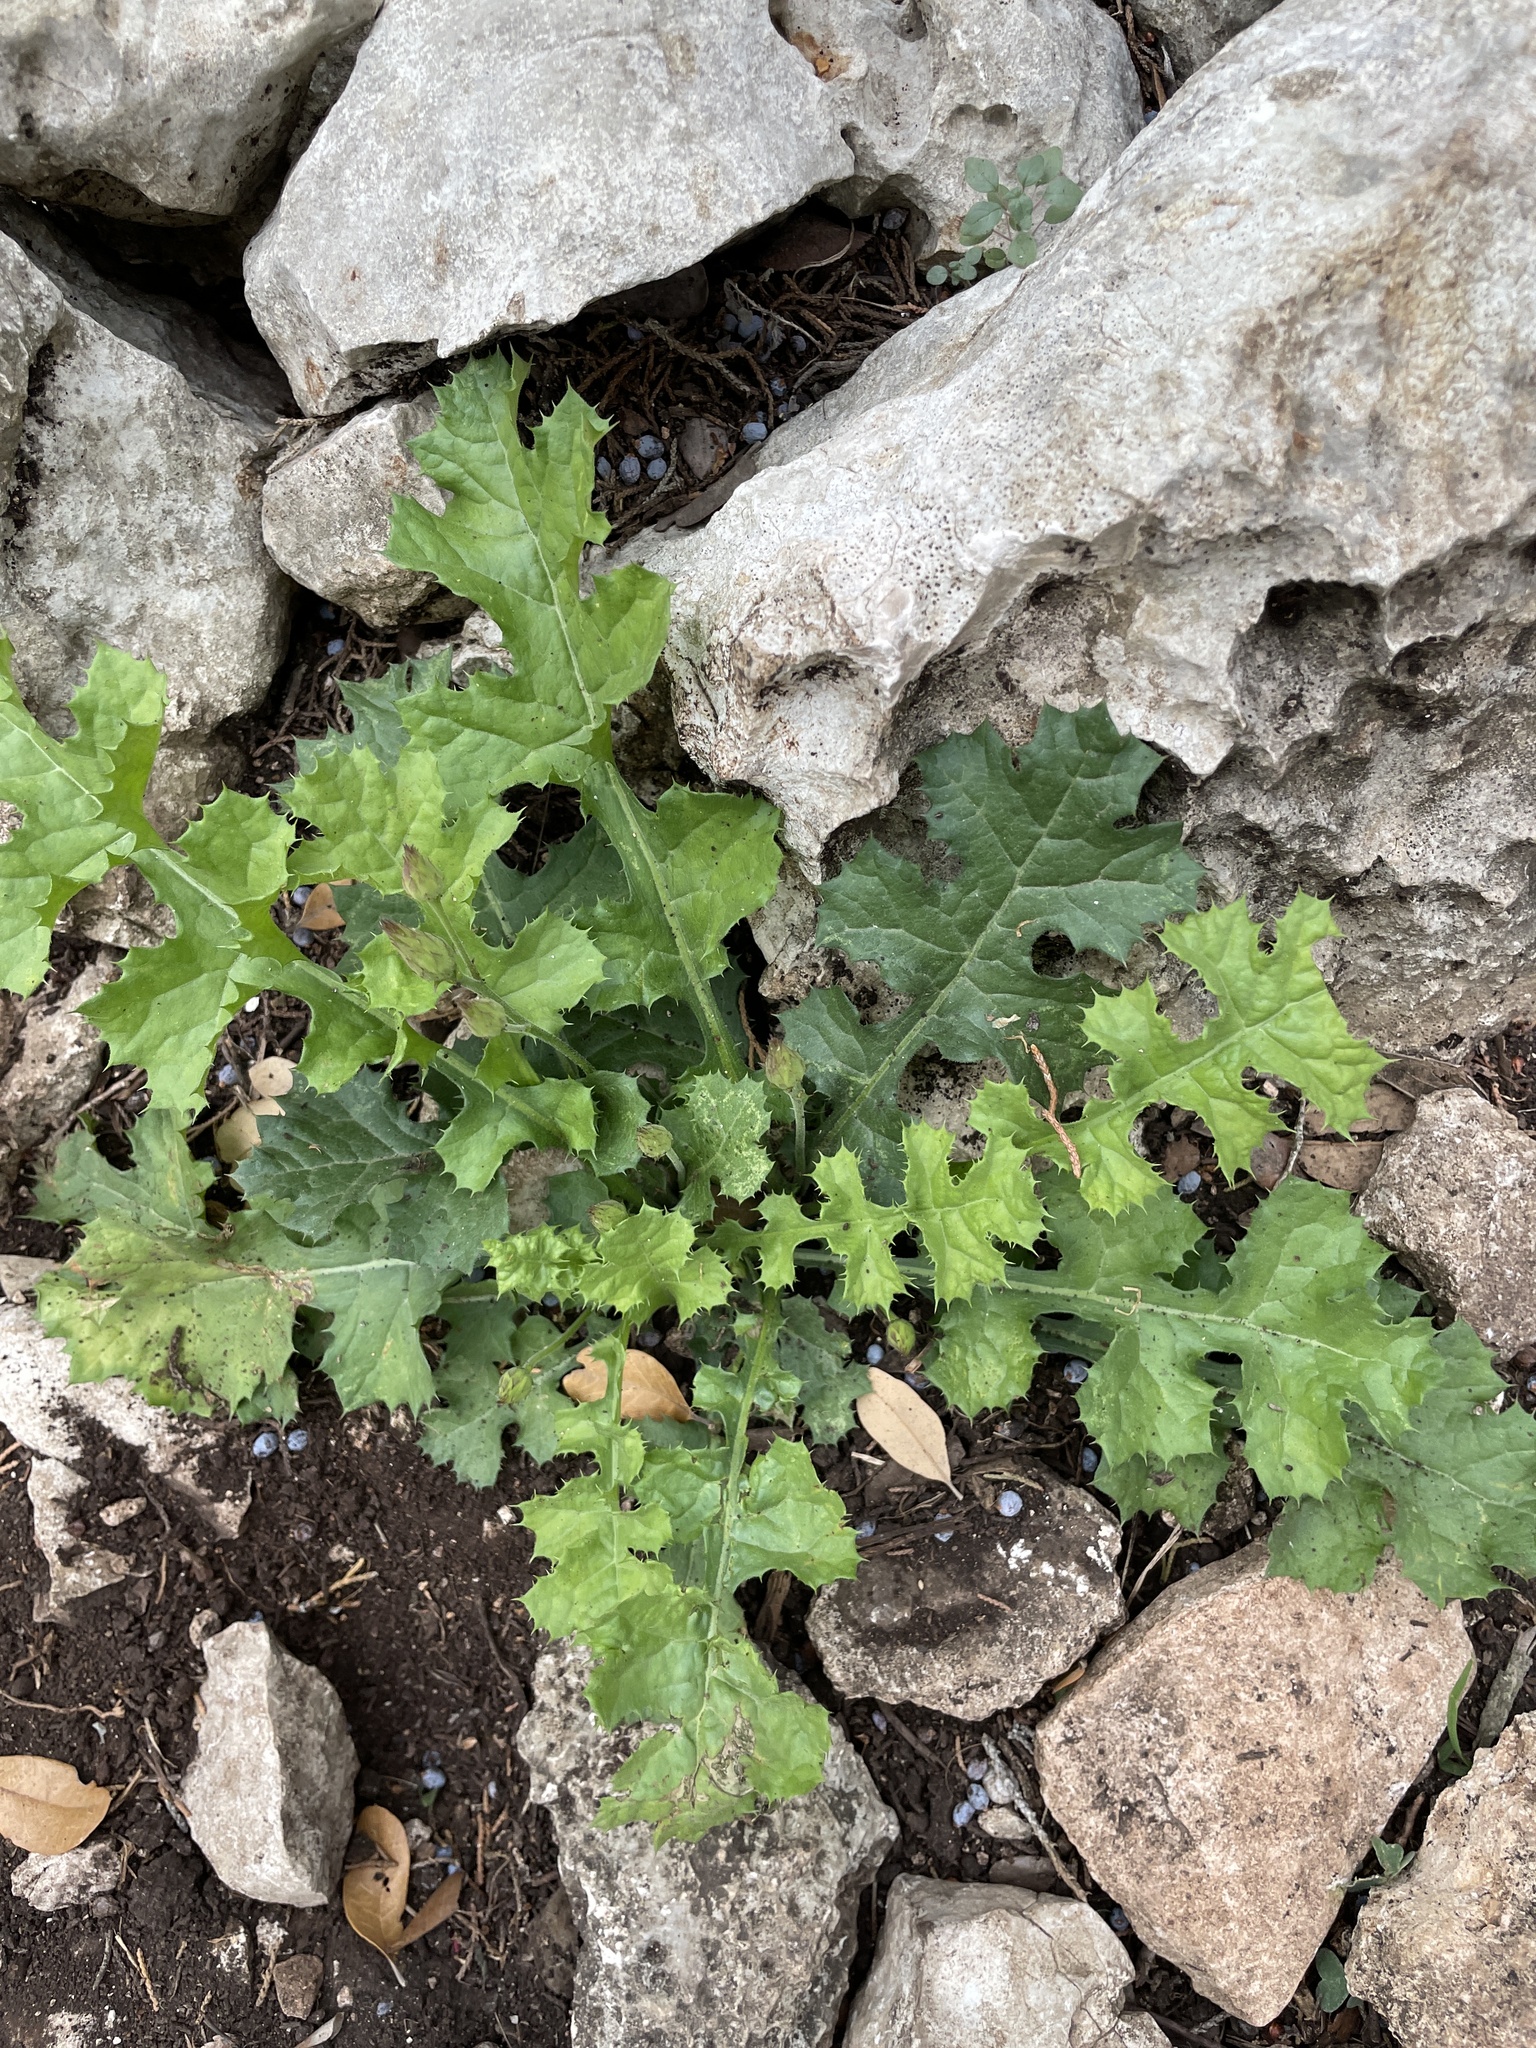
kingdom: Plantae
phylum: Tracheophyta
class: Magnoliopsida
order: Asterales
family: Asteraceae
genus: Acourtia
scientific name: Acourtia runcinata
